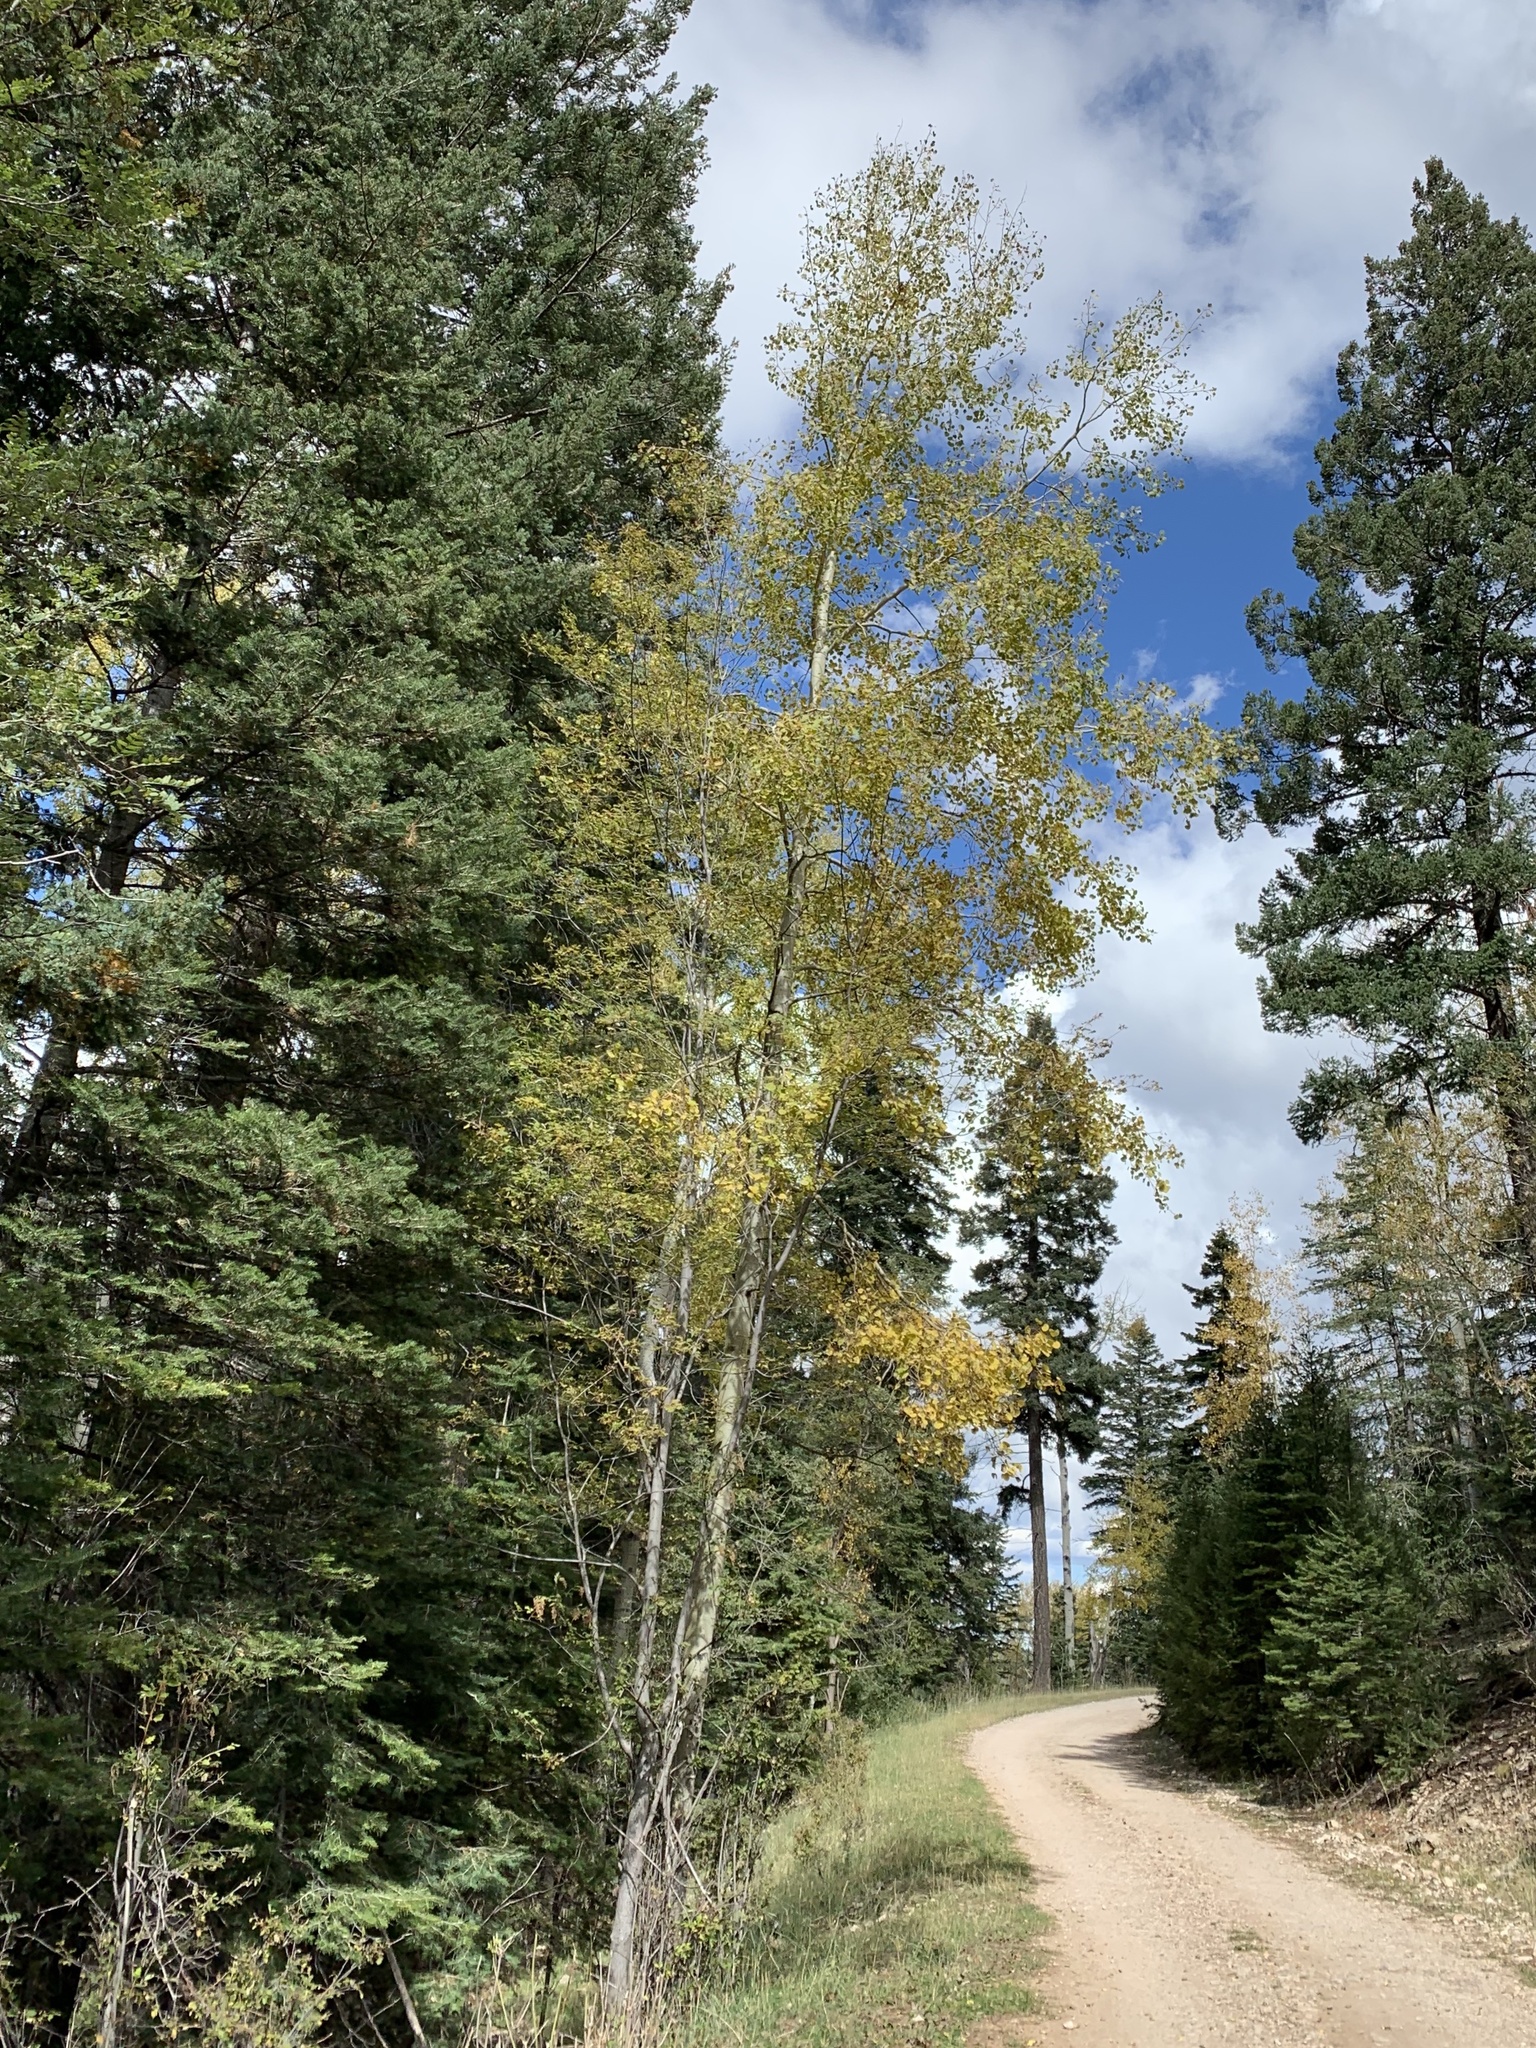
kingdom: Plantae
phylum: Tracheophyta
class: Magnoliopsida
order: Malpighiales
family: Salicaceae
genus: Populus
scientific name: Populus tremuloides
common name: Quaking aspen
